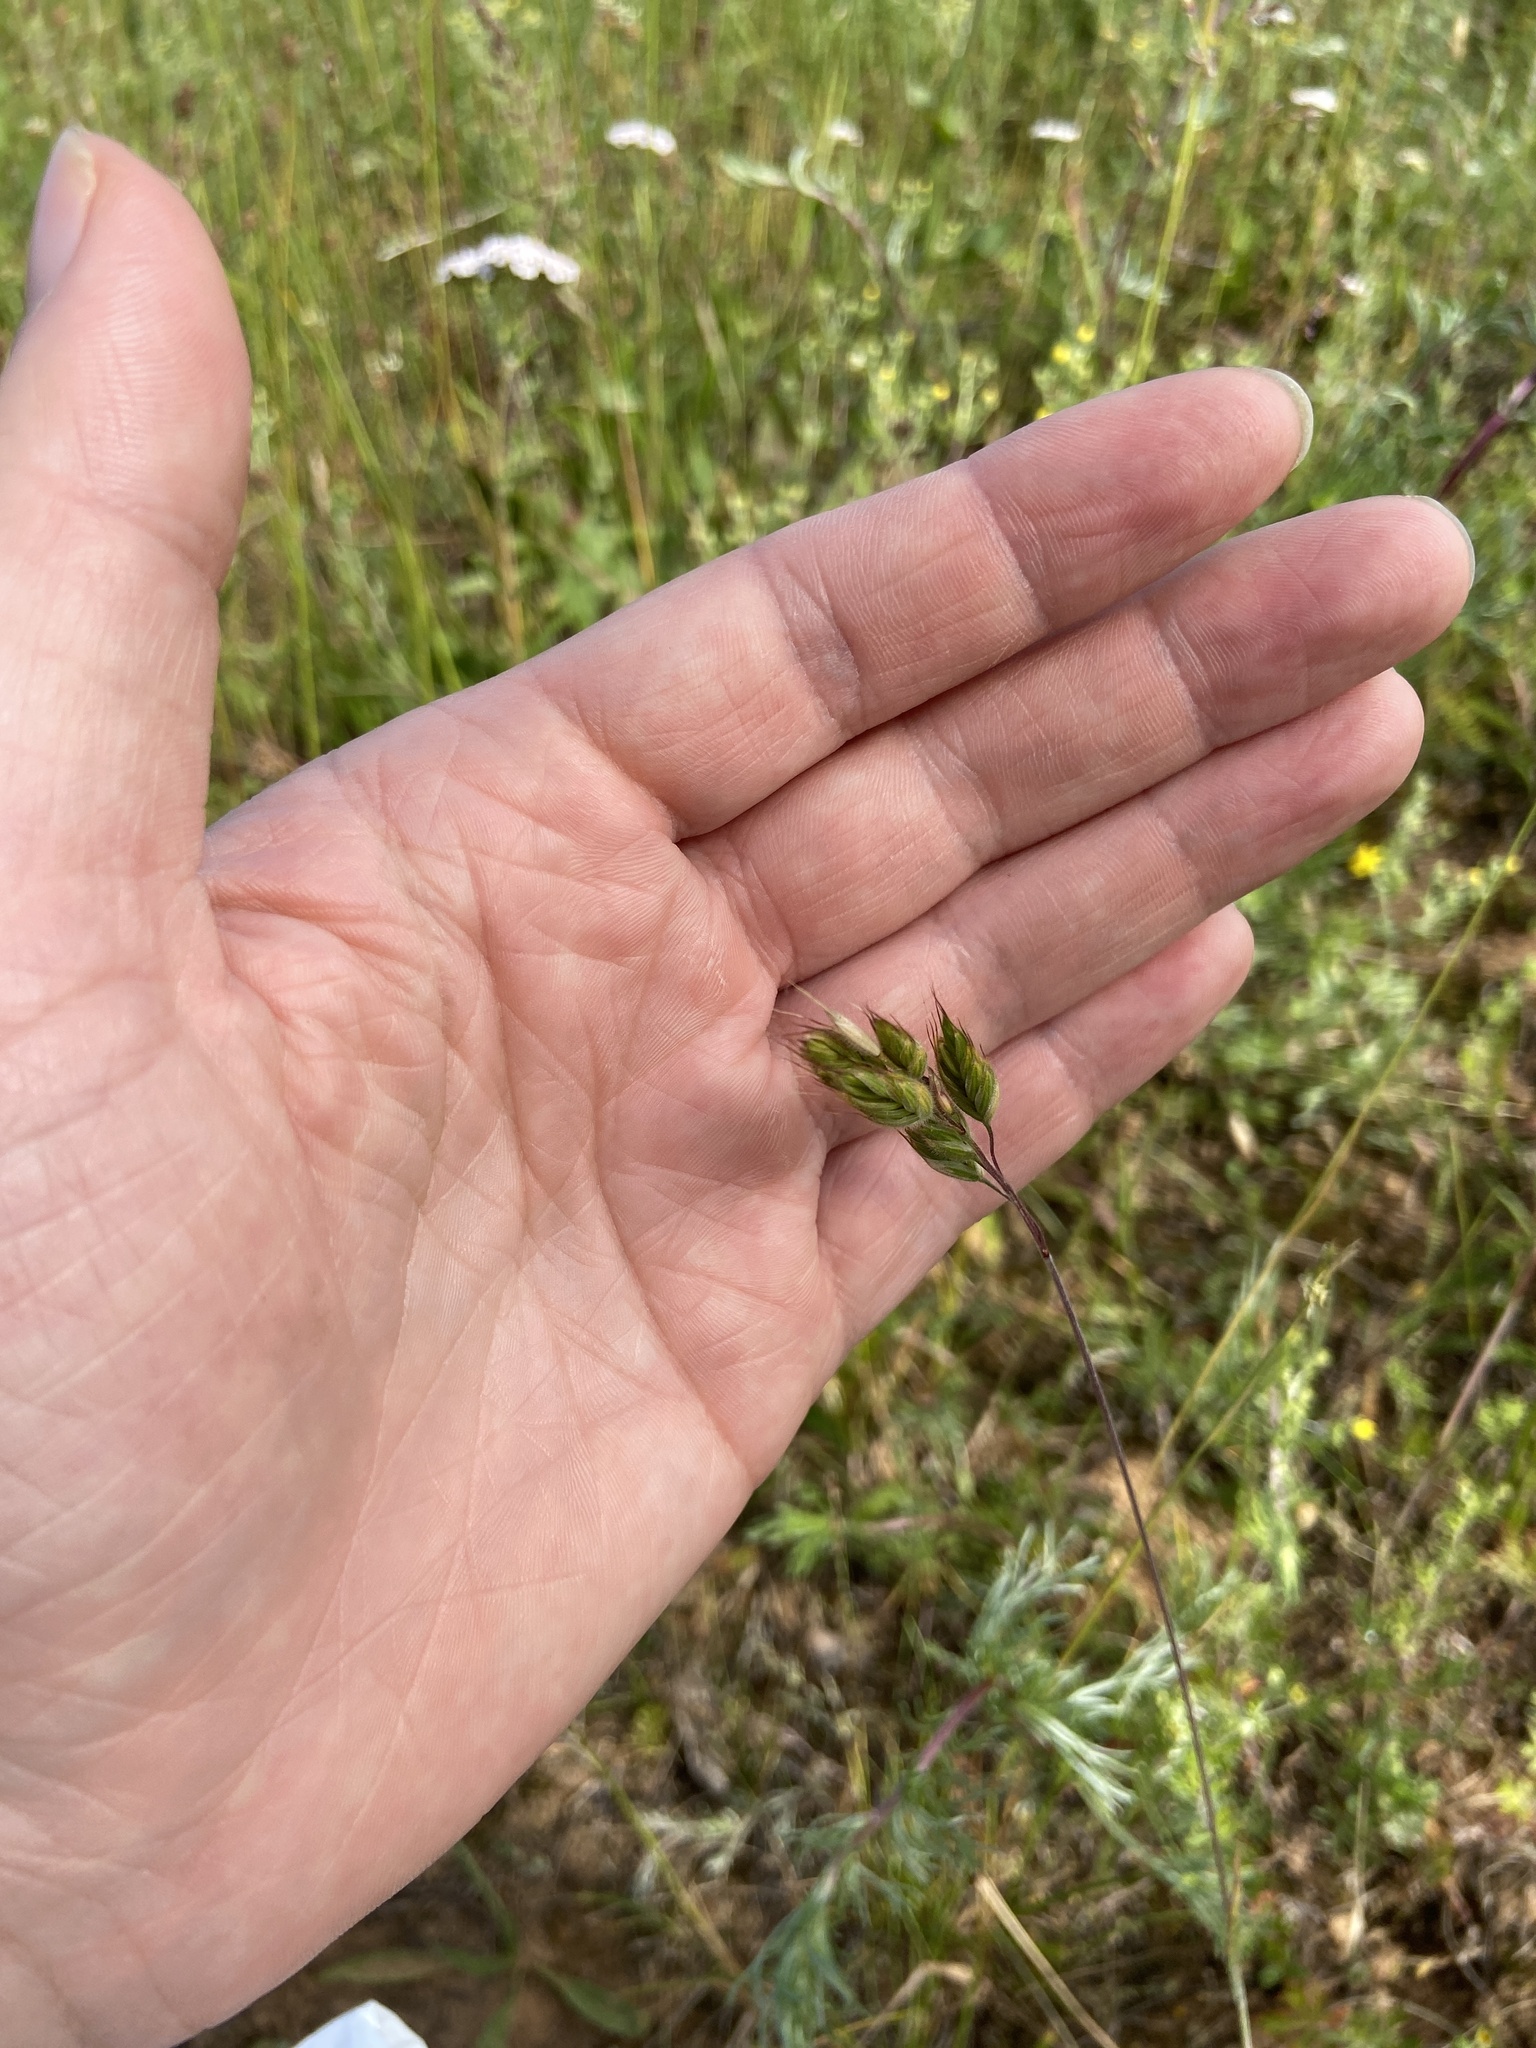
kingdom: Plantae
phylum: Tracheophyta
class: Liliopsida
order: Poales
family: Poaceae
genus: Bromus
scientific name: Bromus hordeaceus
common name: Soft brome
